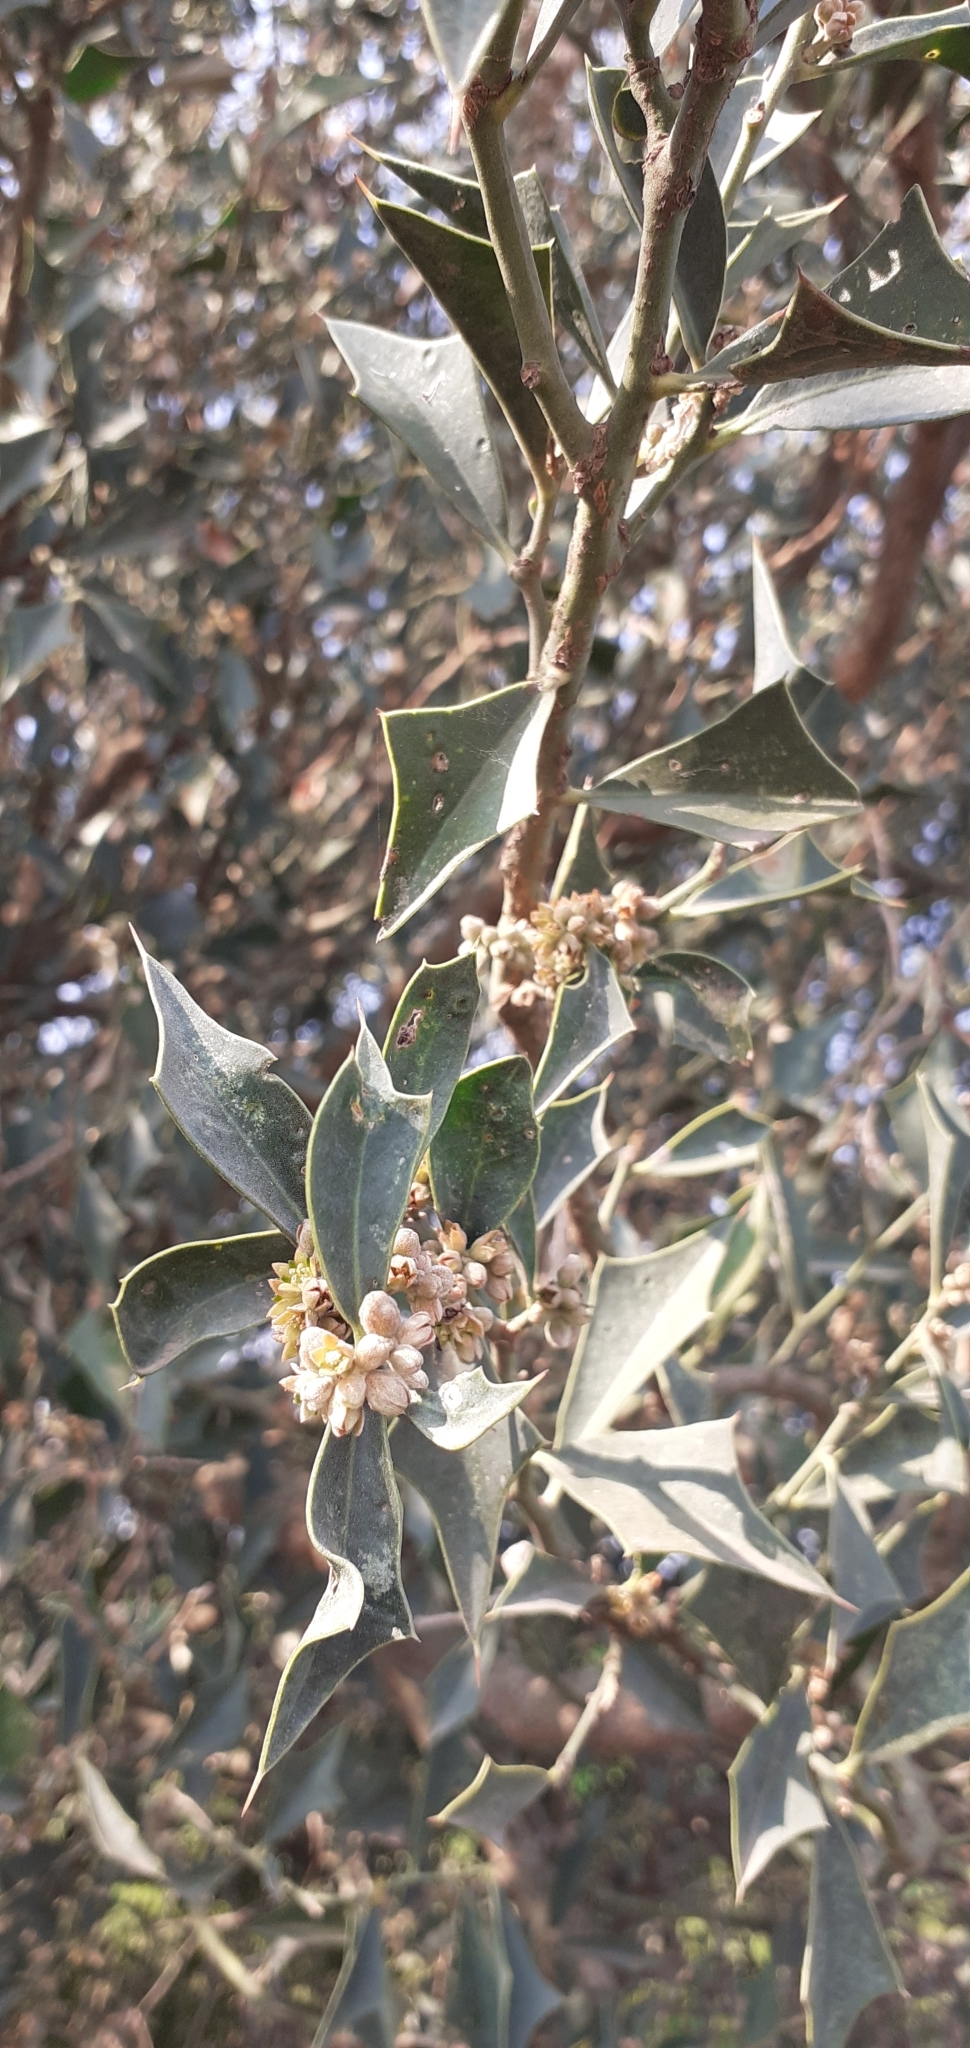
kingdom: Plantae
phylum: Tracheophyta
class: Magnoliopsida
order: Santalales
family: Cervantesiaceae
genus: Jodina
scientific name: Jodina rhombifolia
